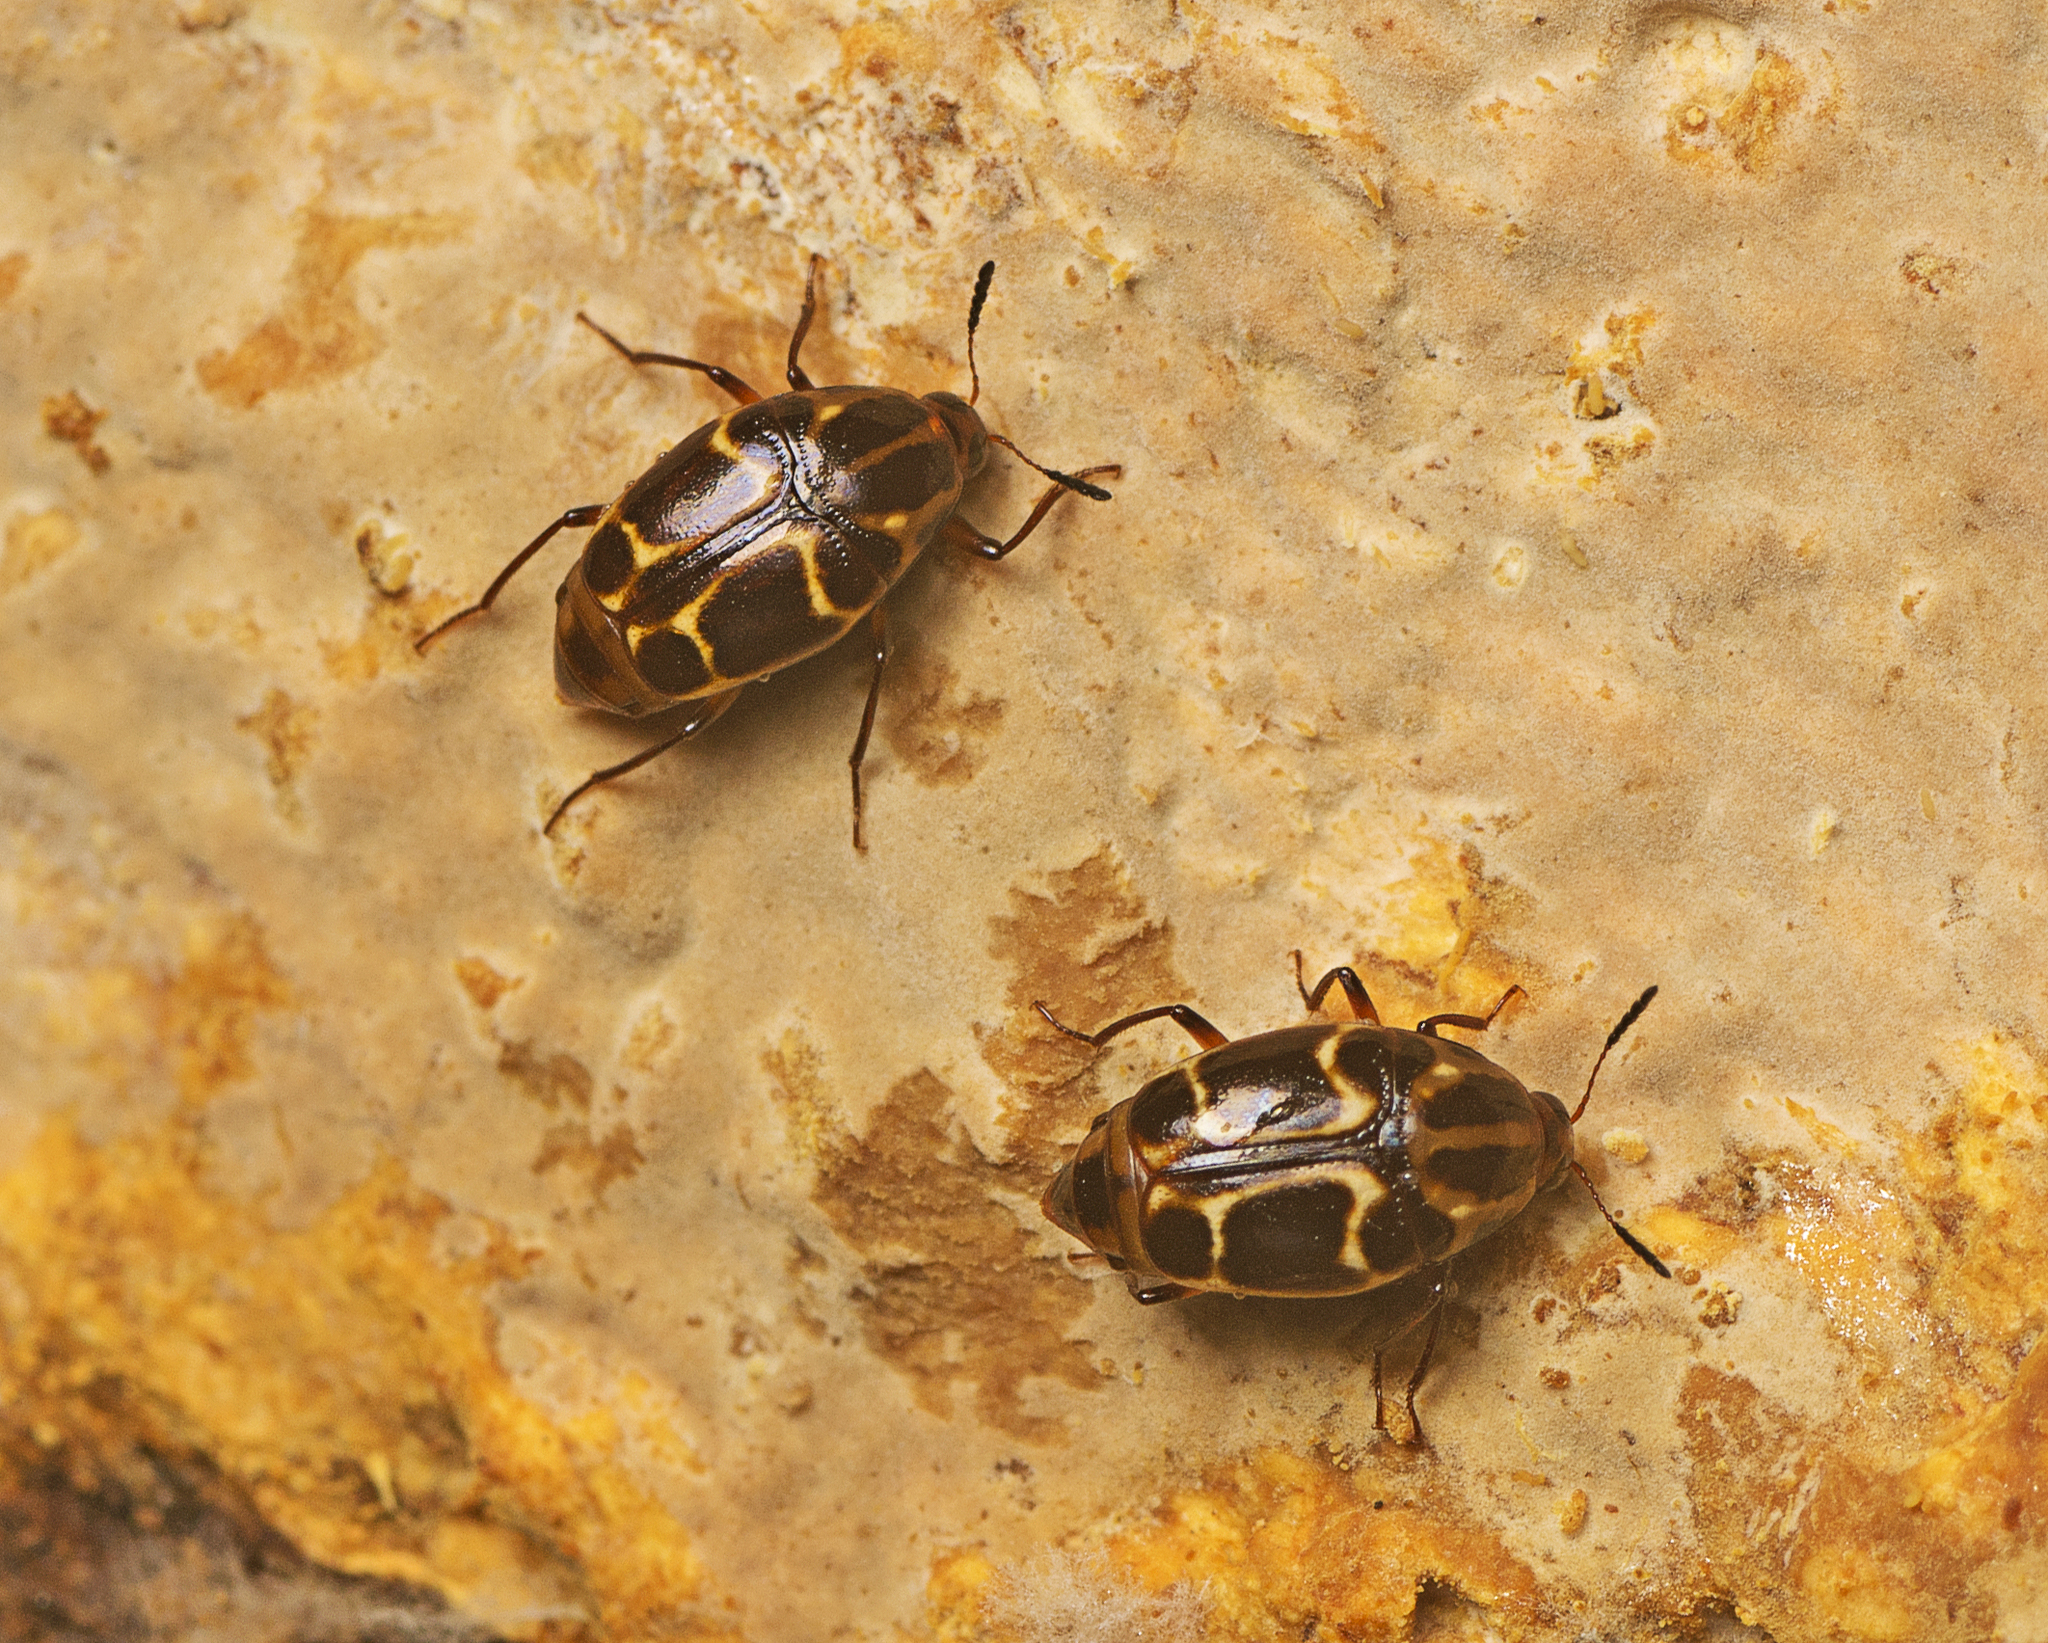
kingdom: Animalia
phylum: Arthropoda
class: Insecta
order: Coleoptera
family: Staphylinidae
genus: Scaphidium
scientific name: Scaphidium exornatum
